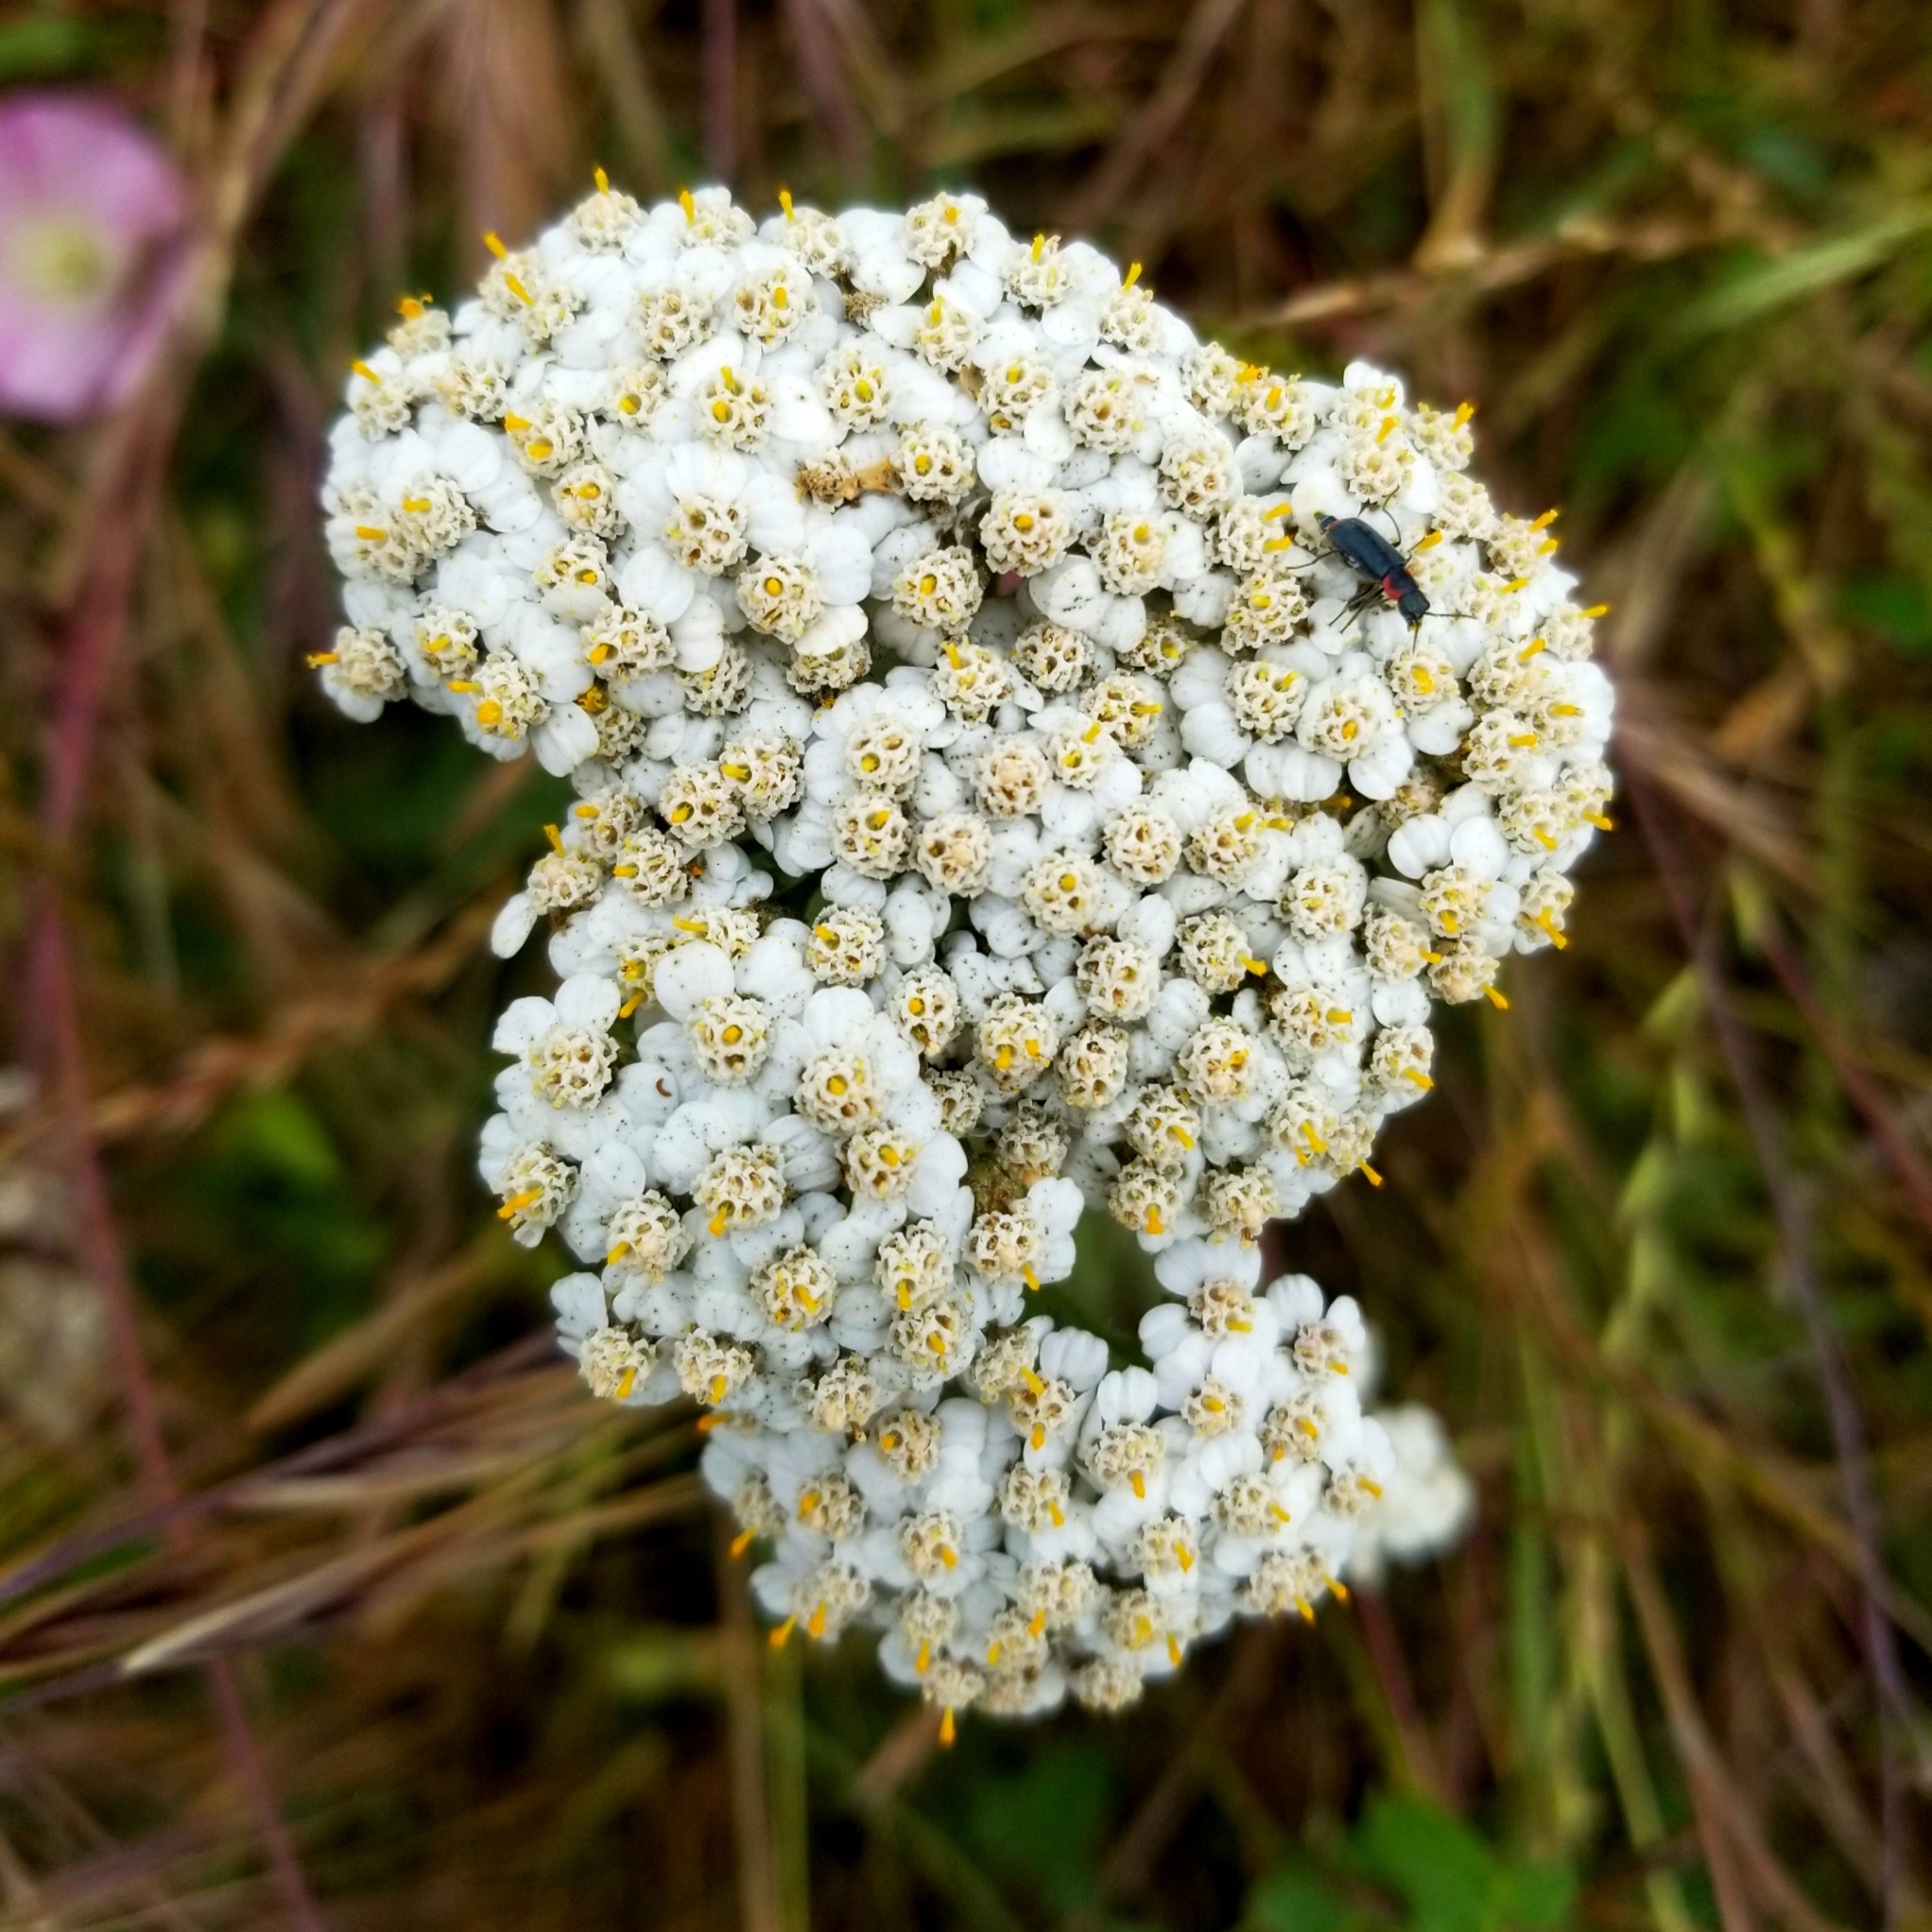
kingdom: Plantae
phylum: Tracheophyta
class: Magnoliopsida
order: Asterales
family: Asteraceae
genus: Achillea
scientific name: Achillea millefolium
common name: Yarrow
